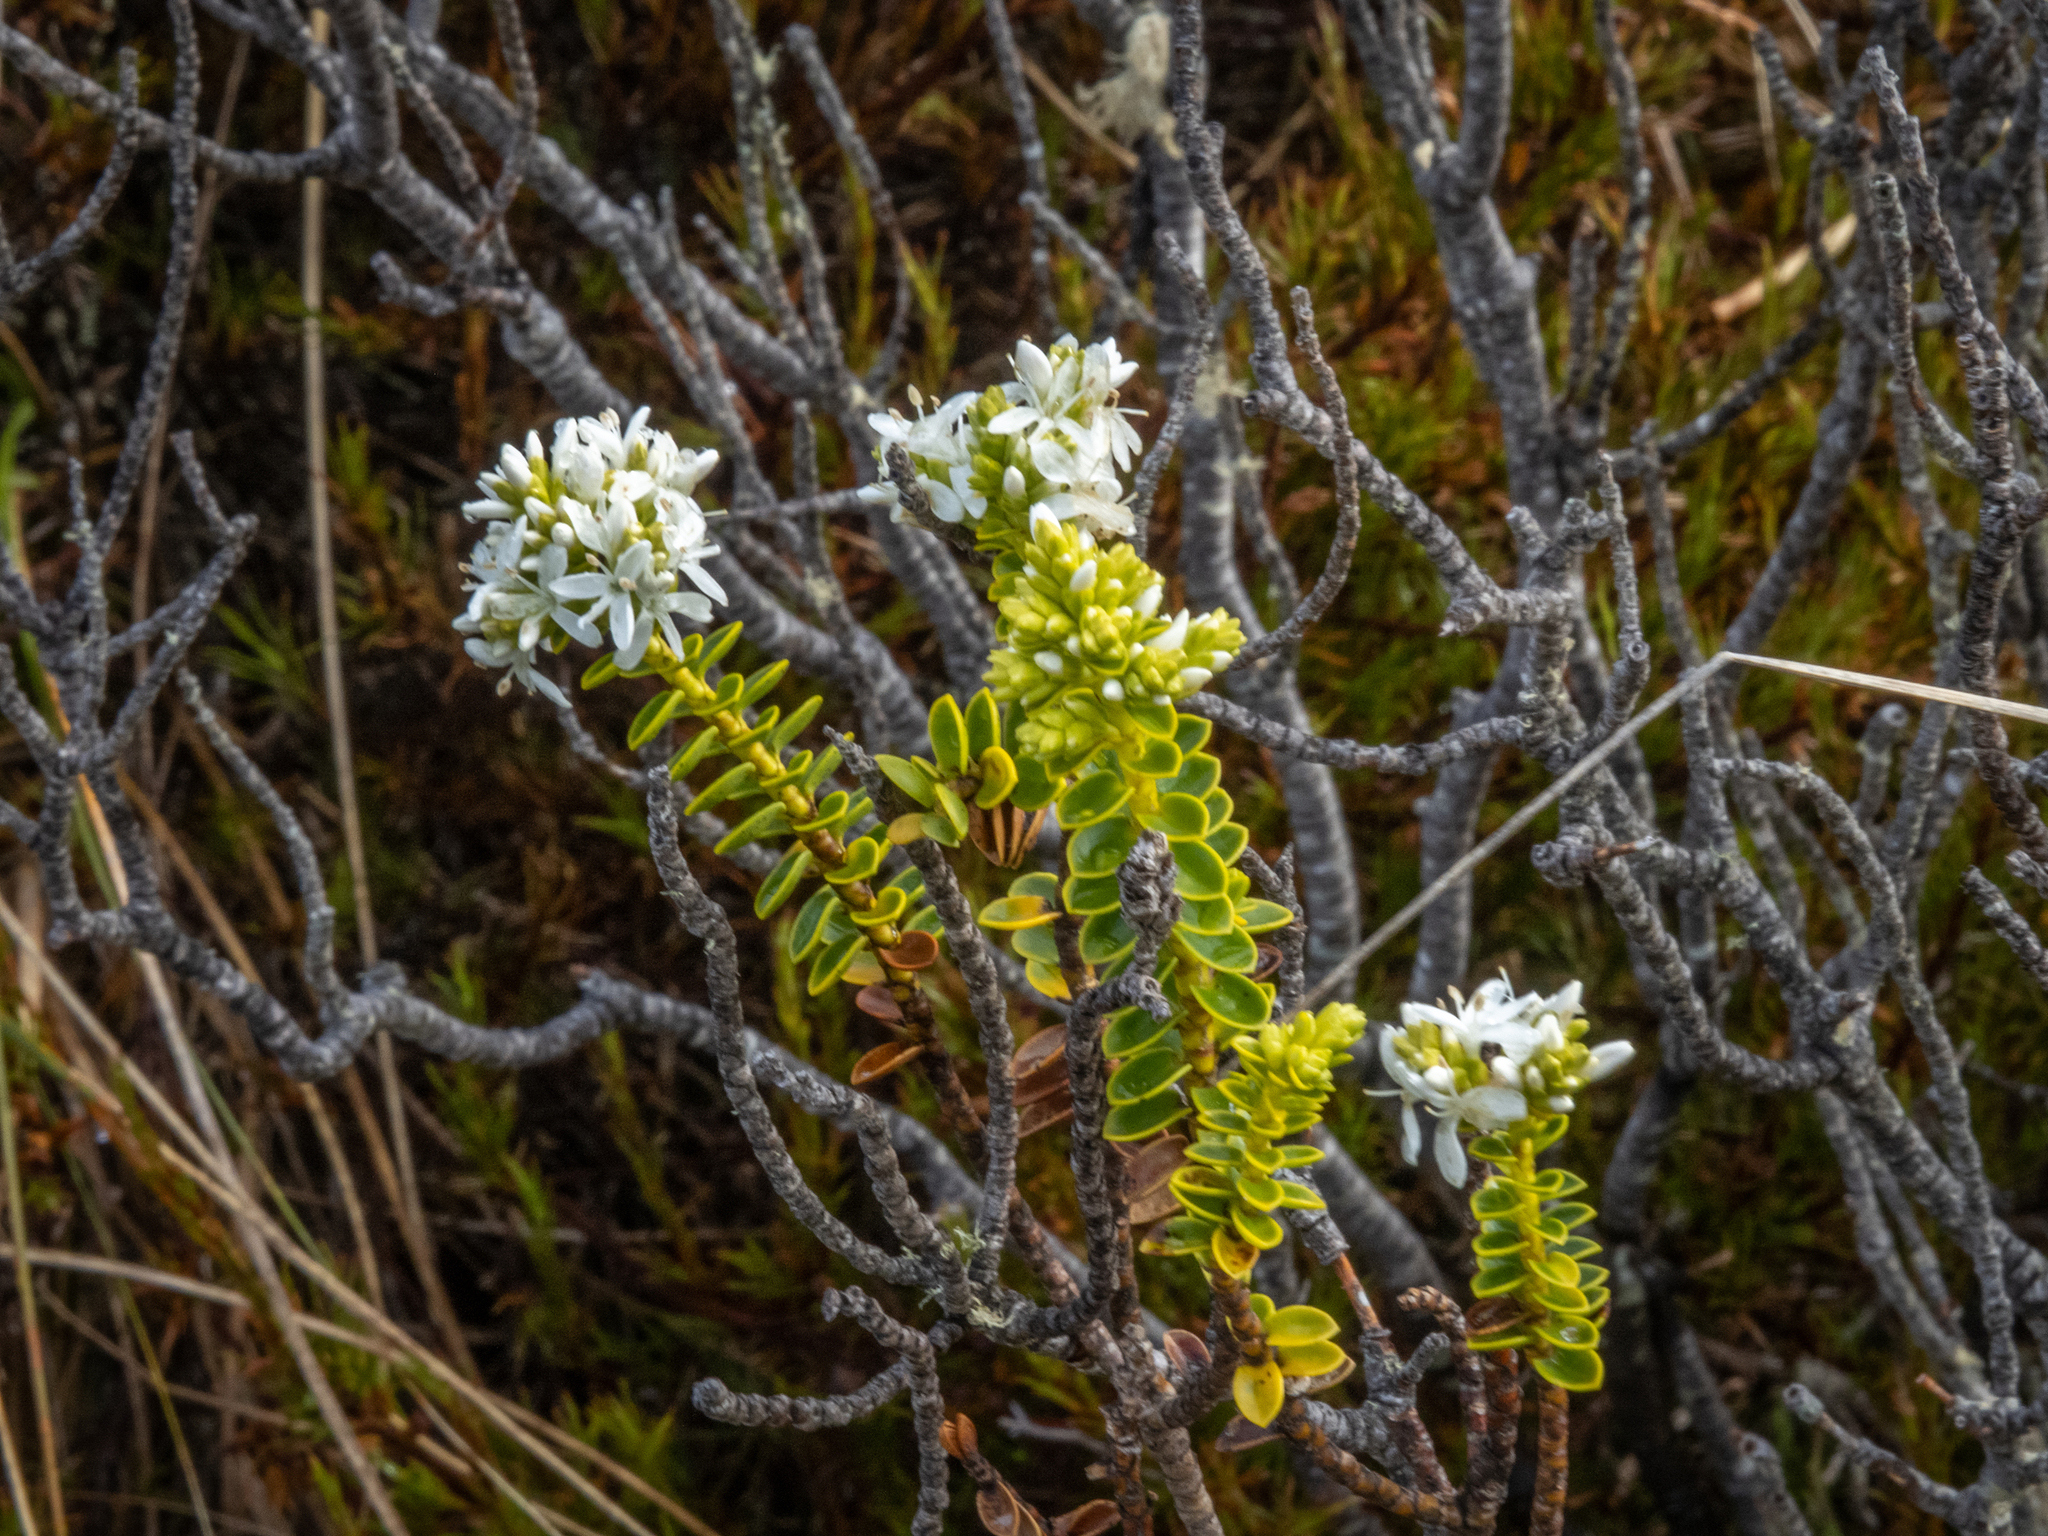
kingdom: Plantae
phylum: Tracheophyta
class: Magnoliopsida
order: Lamiales
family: Plantaginaceae
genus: Veronica
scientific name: Veronica odora
